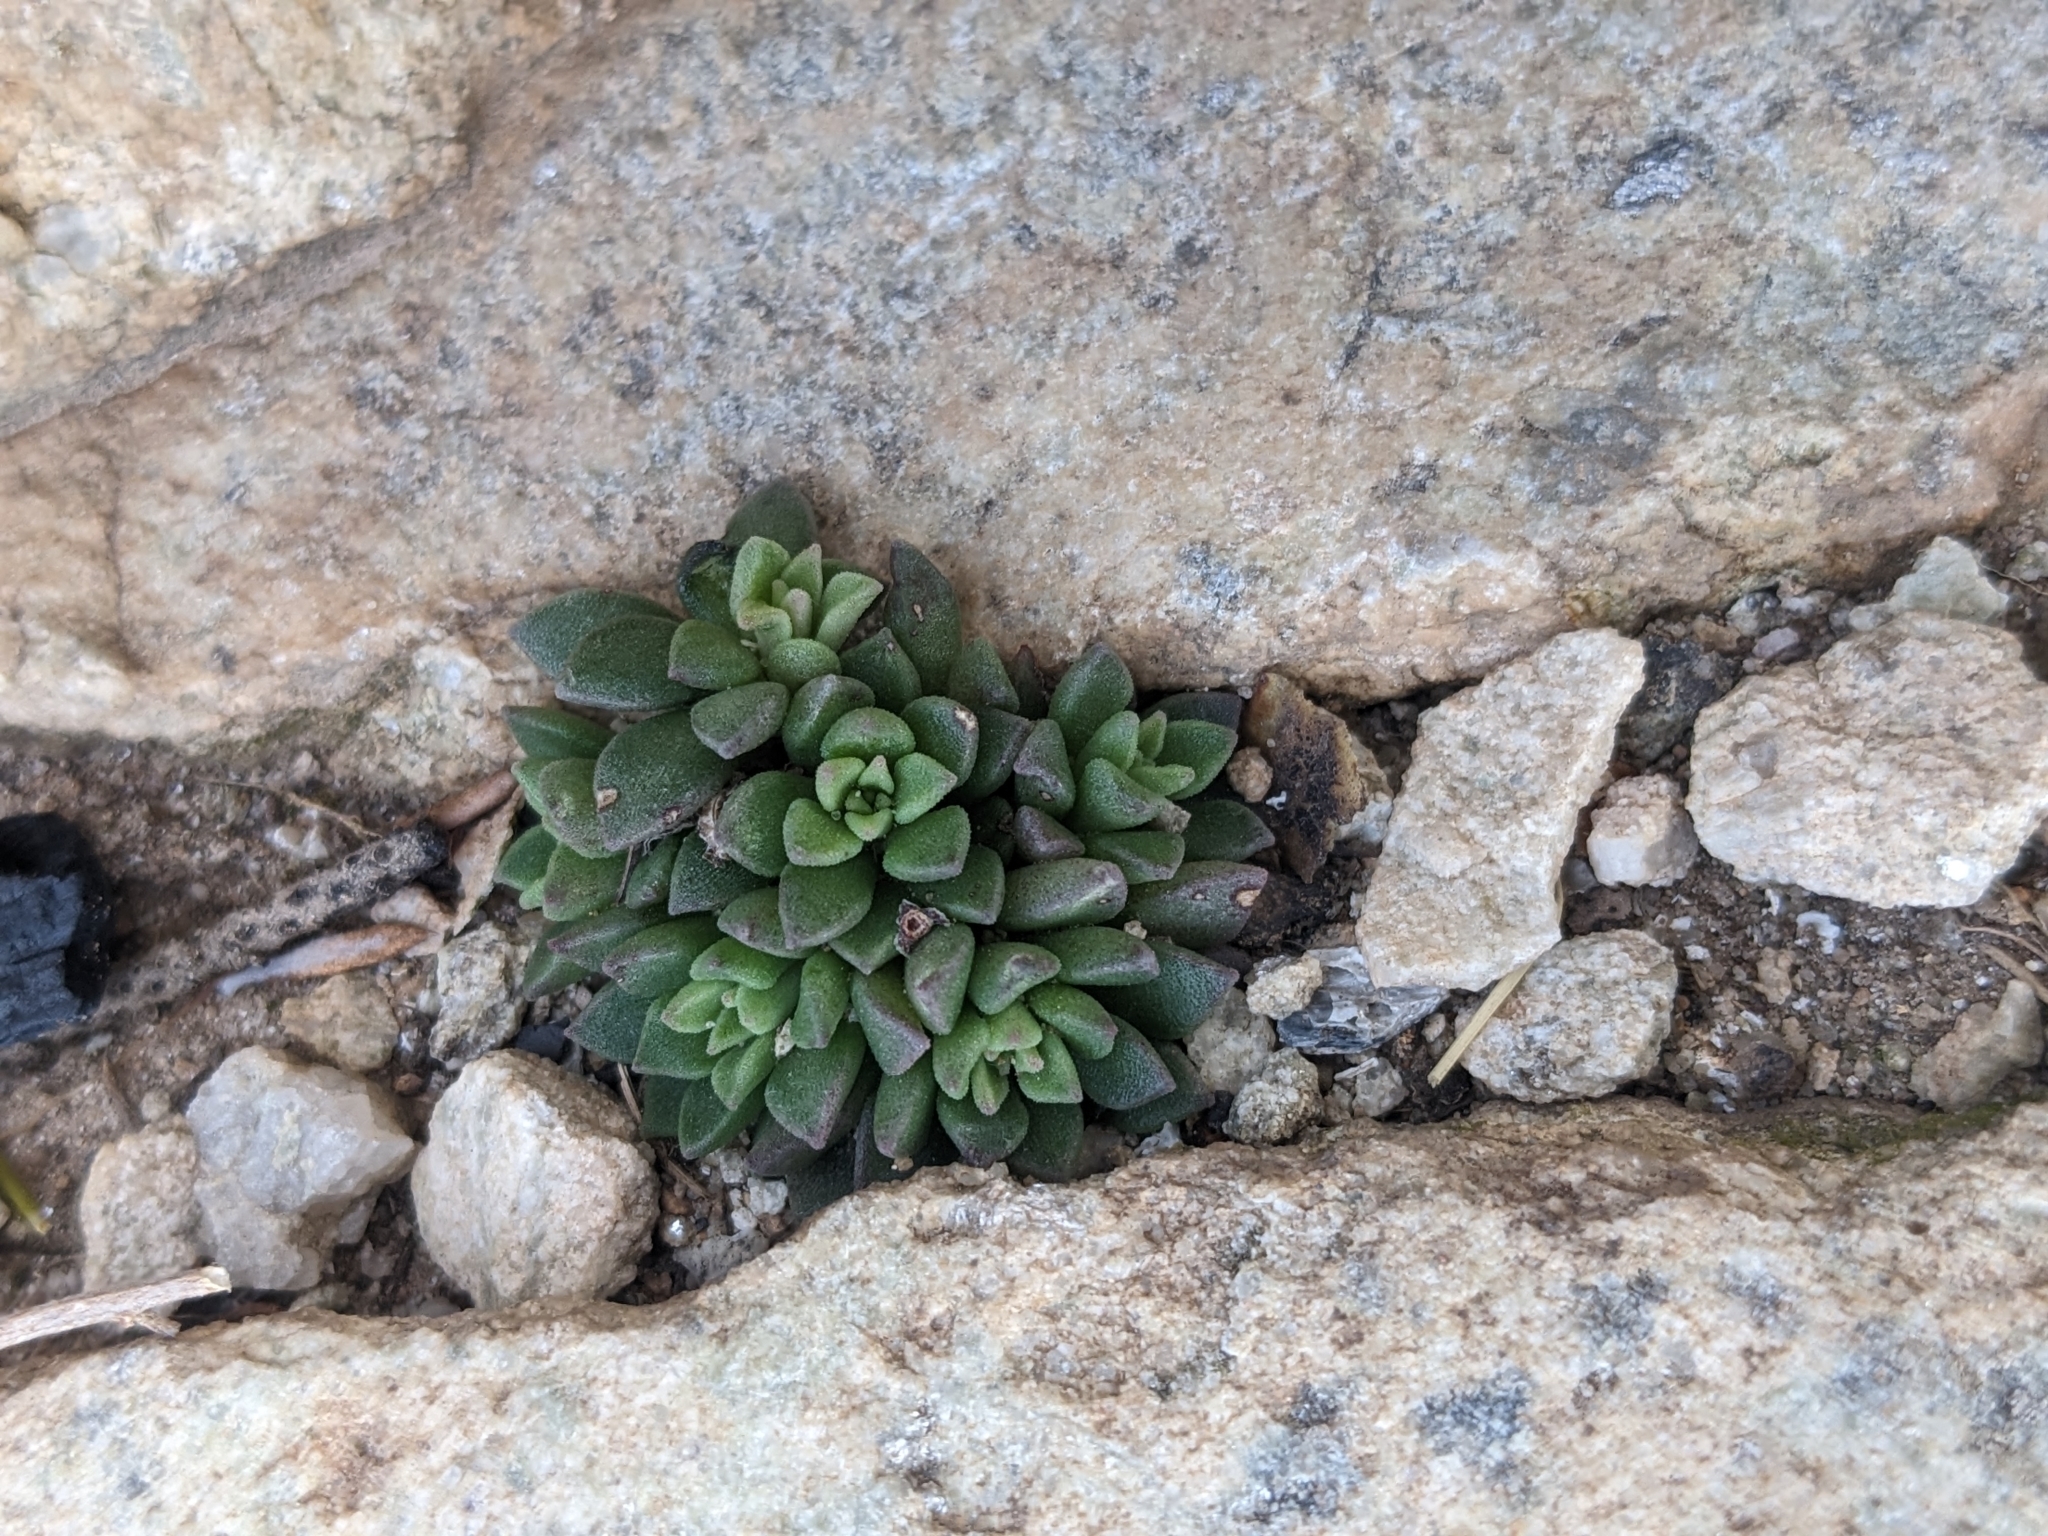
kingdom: Plantae
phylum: Tracheophyta
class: Magnoliopsida
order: Saxifragales
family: Crassulaceae
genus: Sedum
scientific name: Sedum cockerellii
